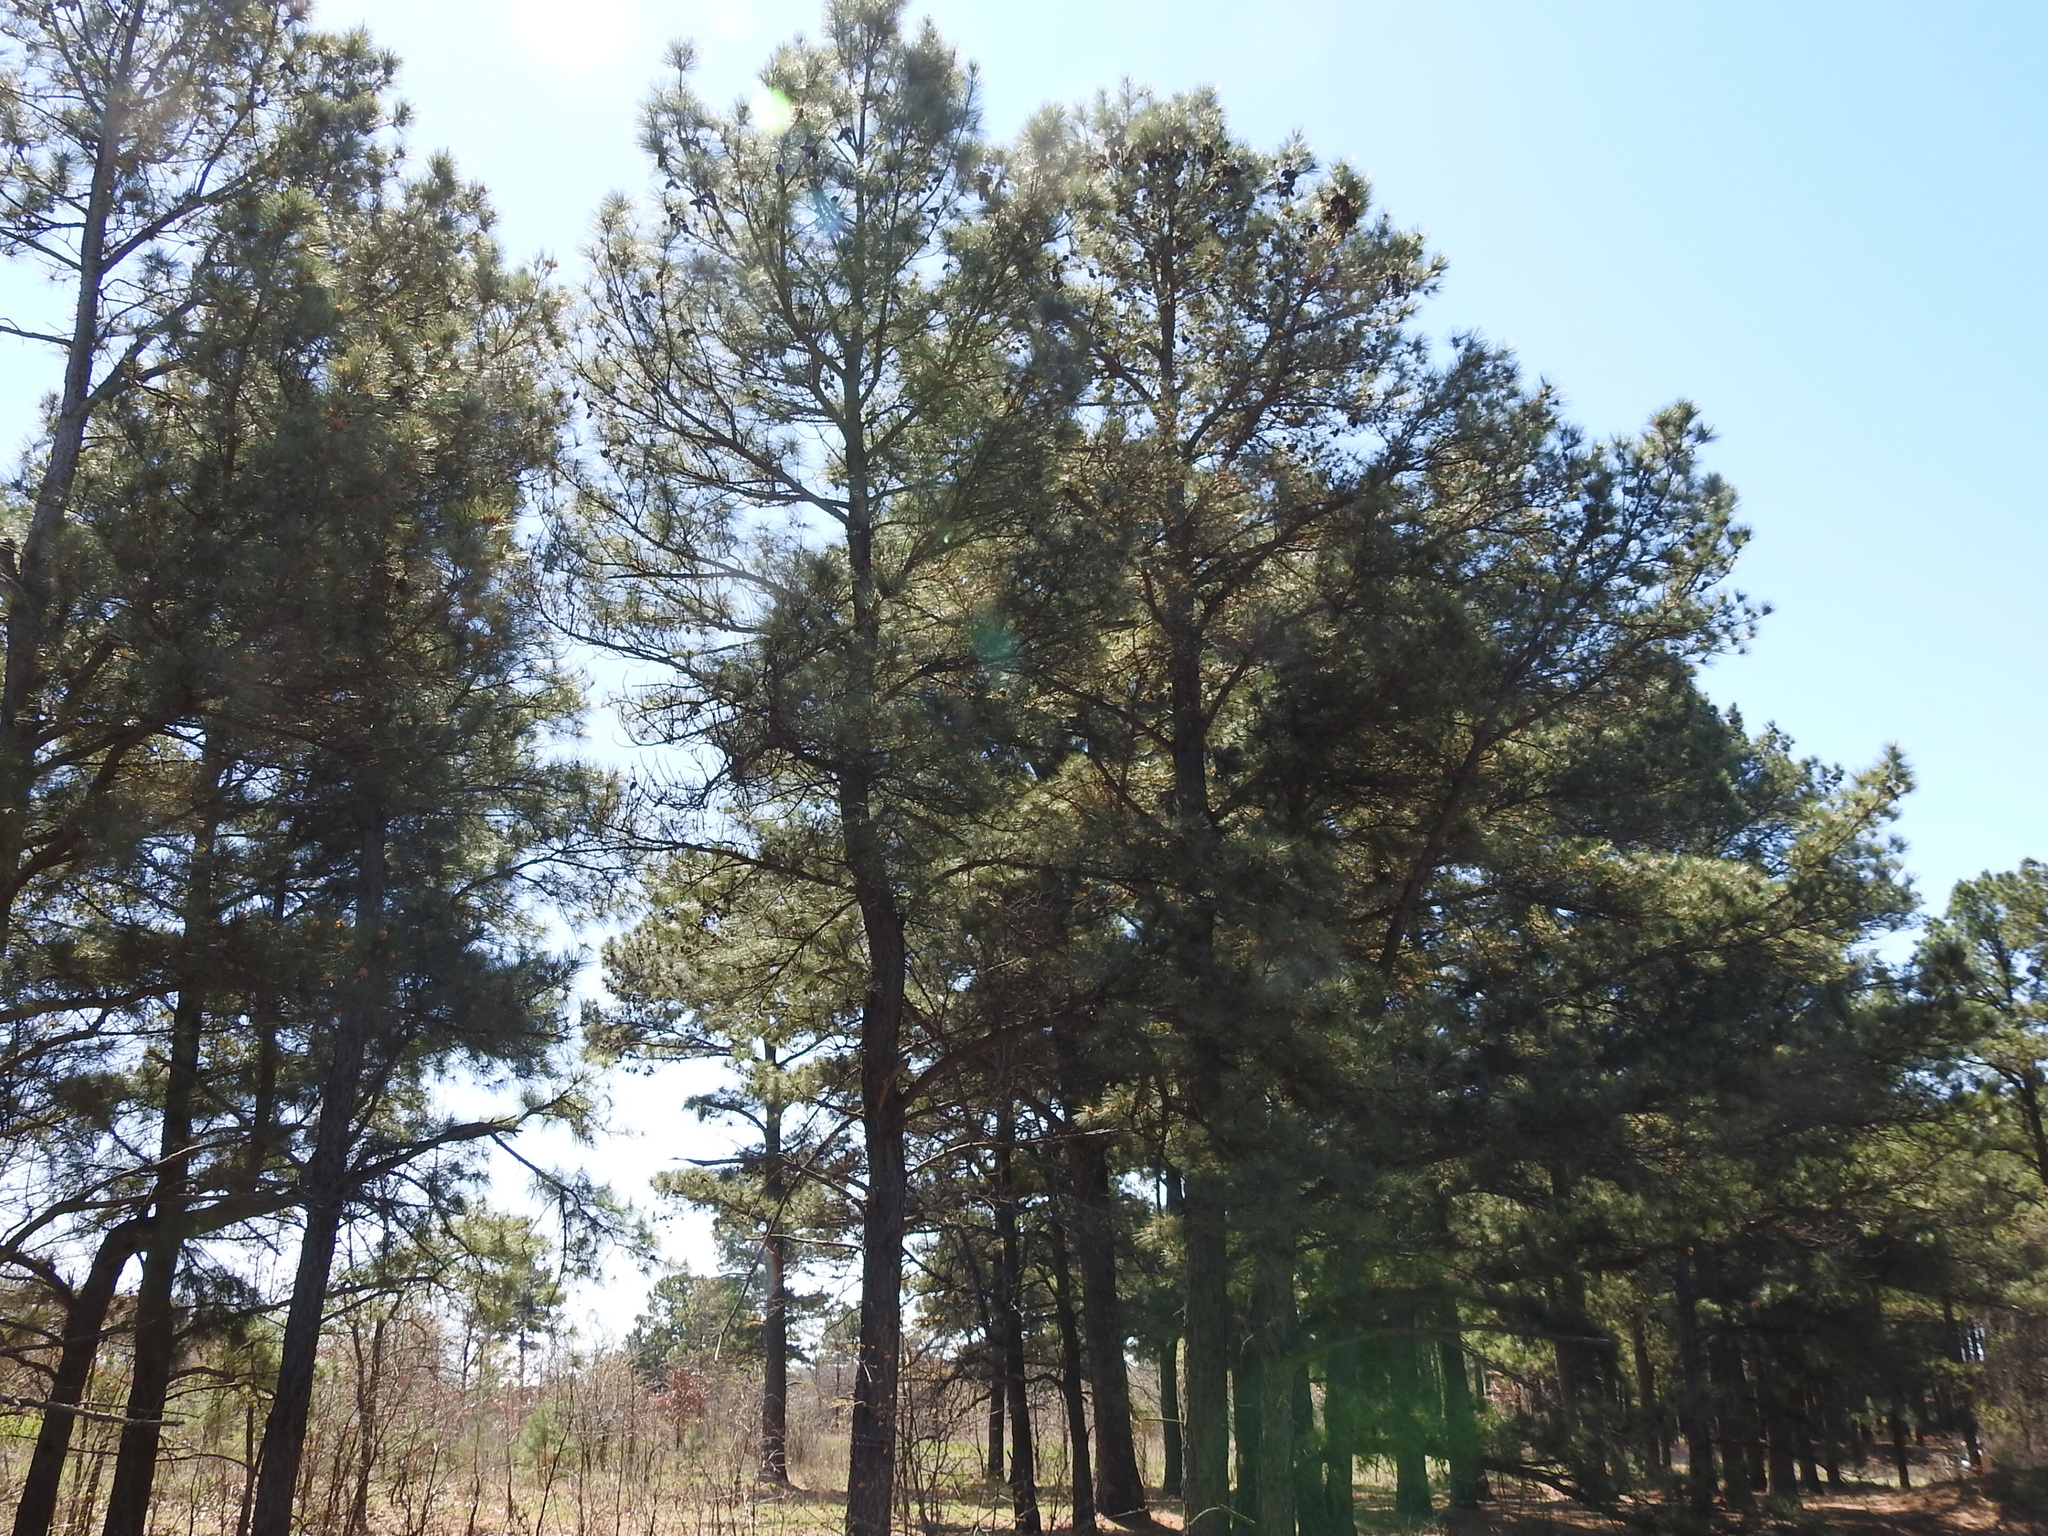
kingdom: Plantae
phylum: Tracheophyta
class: Pinopsida
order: Pinales
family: Pinaceae
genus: Pinus
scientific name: Pinus taeda
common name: Loblolly pine
